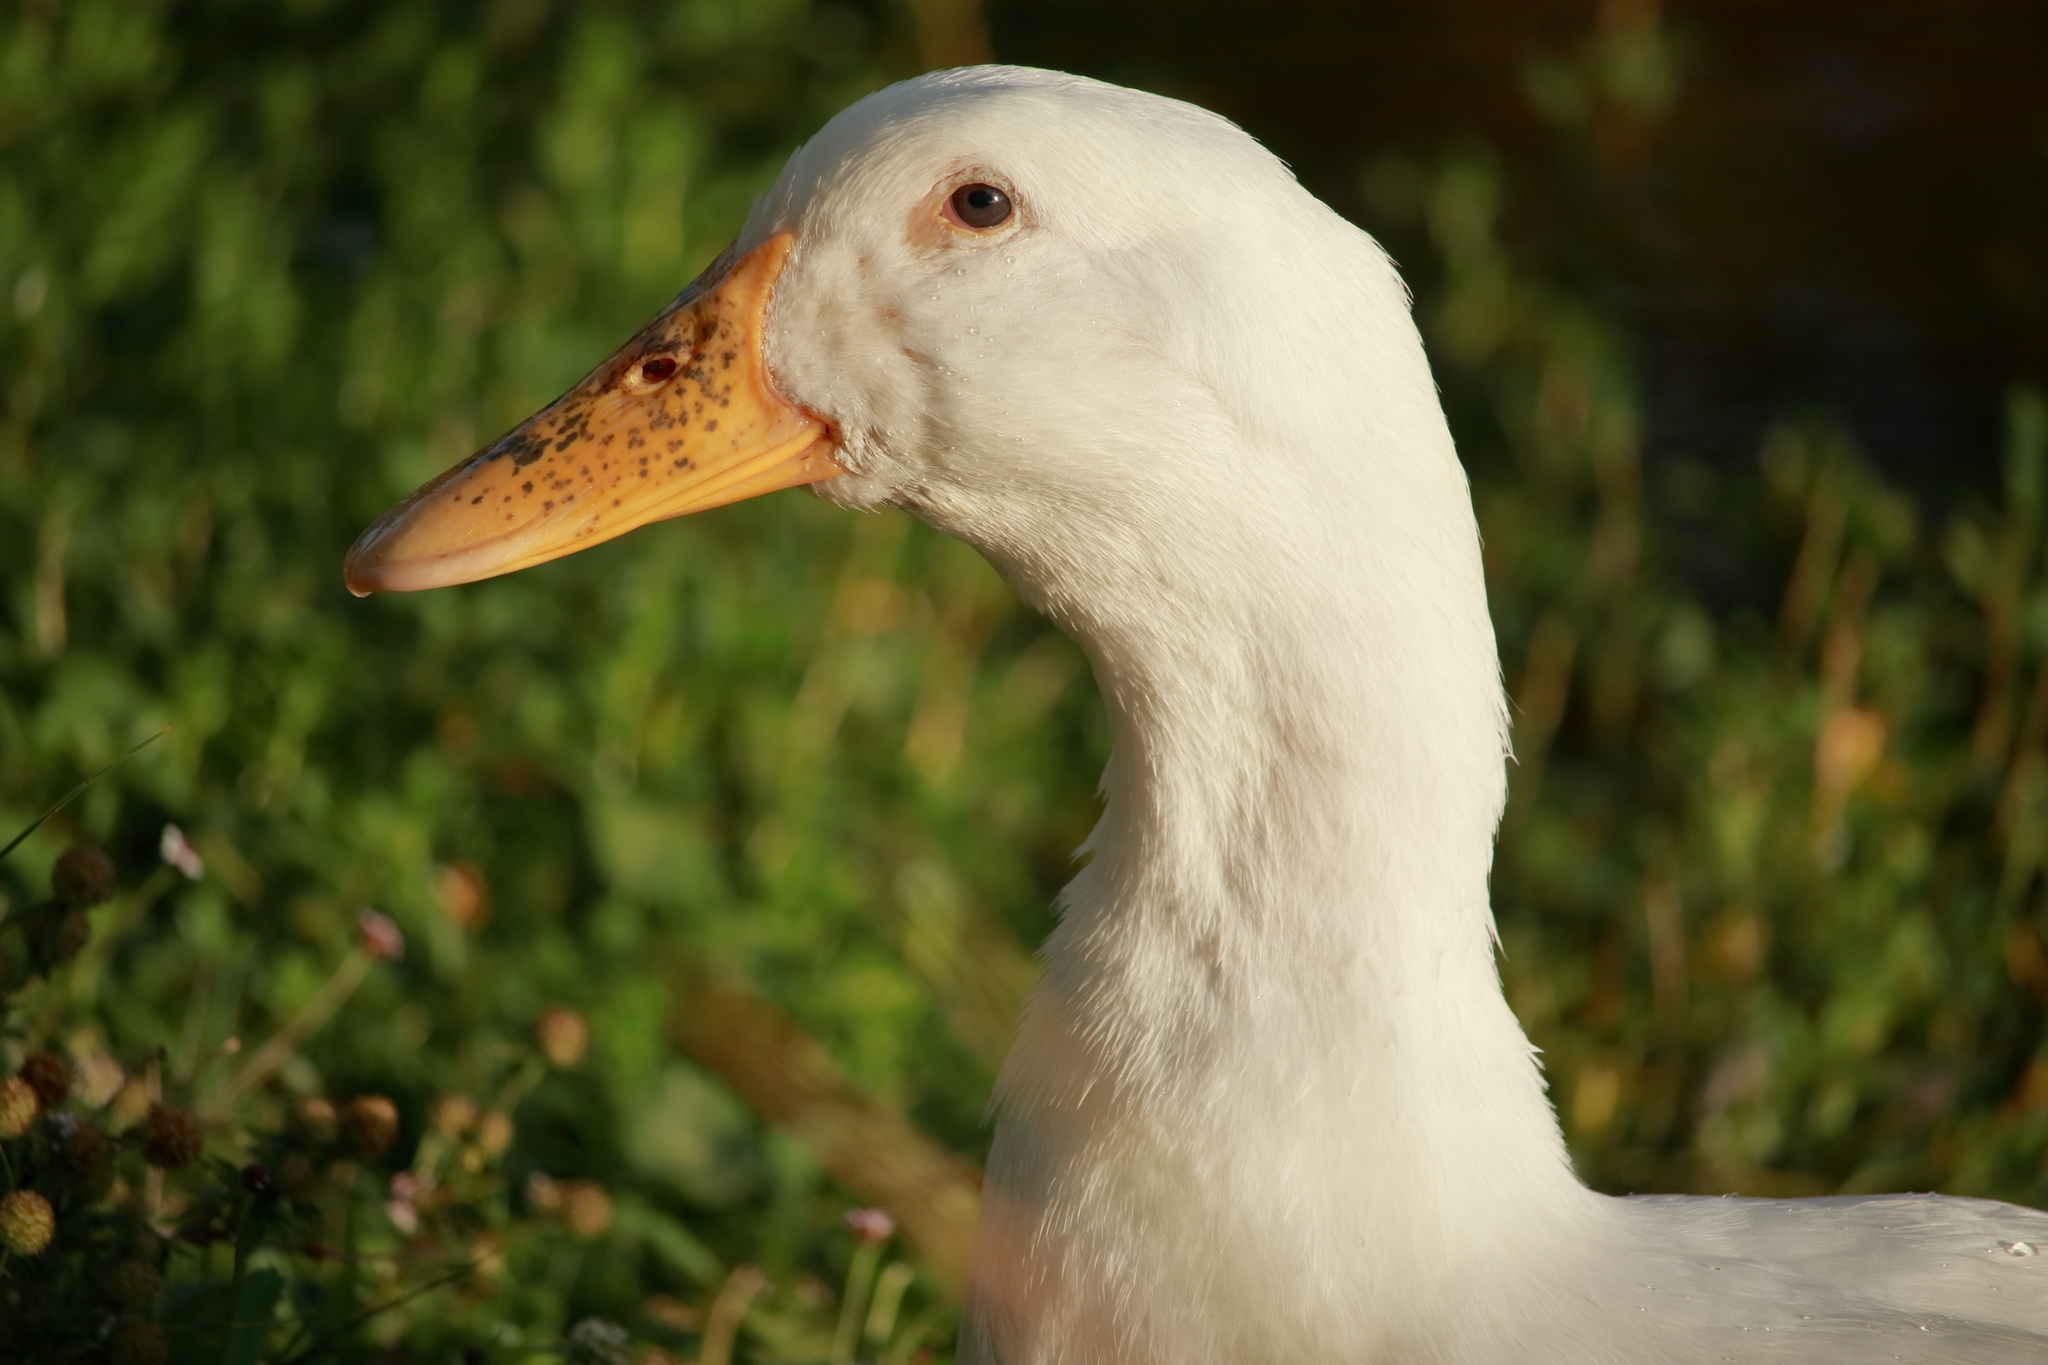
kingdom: Animalia
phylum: Chordata
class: Aves
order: Anseriformes
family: Anatidae
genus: Anas
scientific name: Anas platyrhynchos
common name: Mallard
